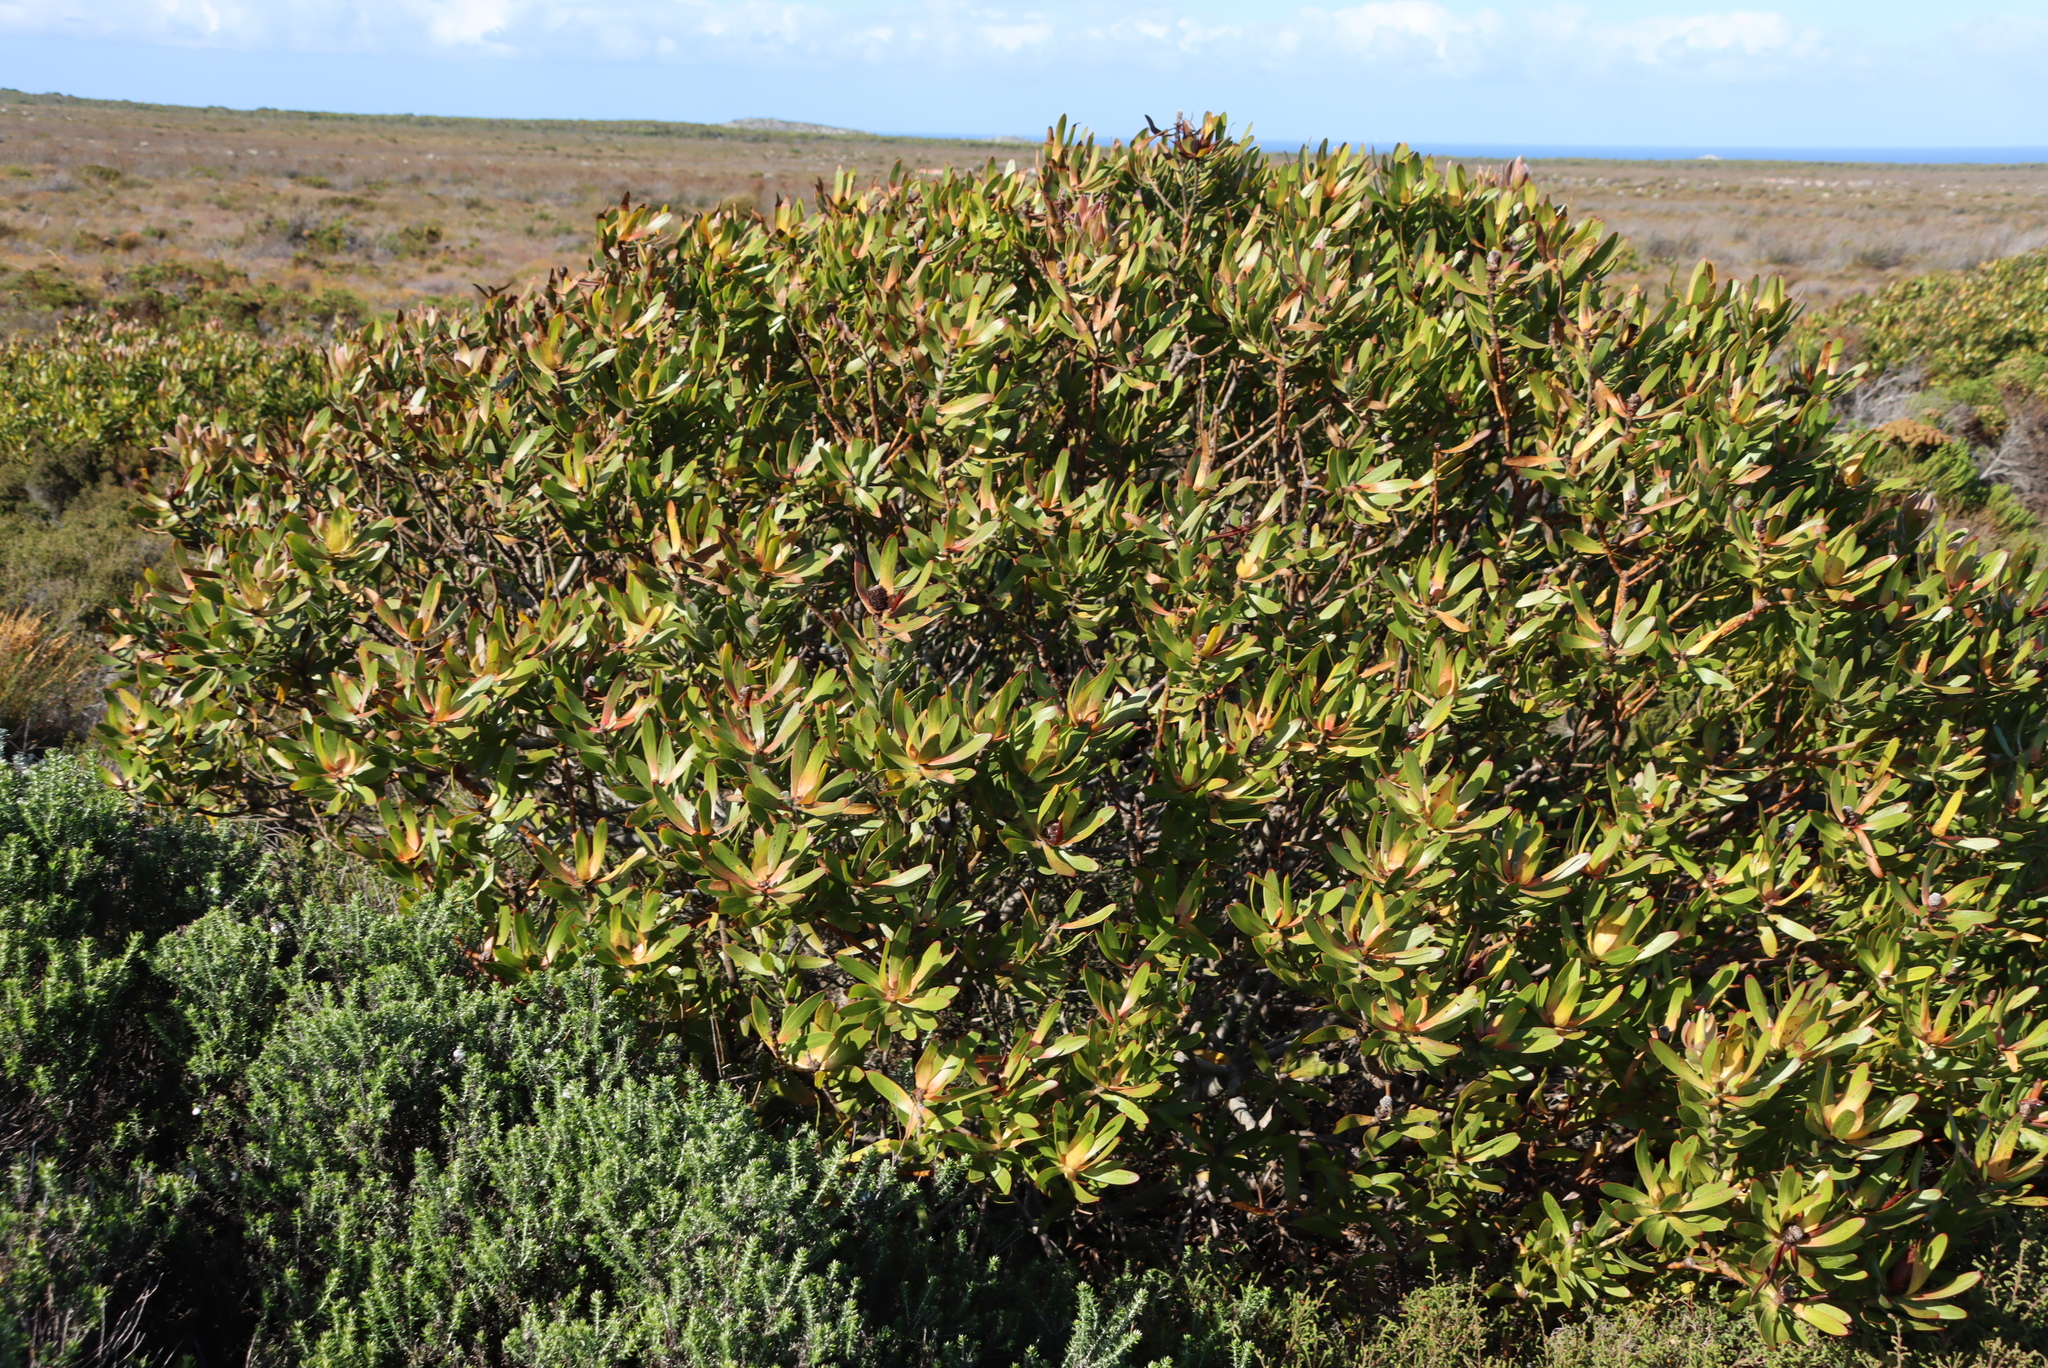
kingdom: Plantae
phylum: Tracheophyta
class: Magnoliopsida
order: Proteales
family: Proteaceae
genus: Leucadendron
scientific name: Leucadendron laureolum
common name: Golden sunshinebush
